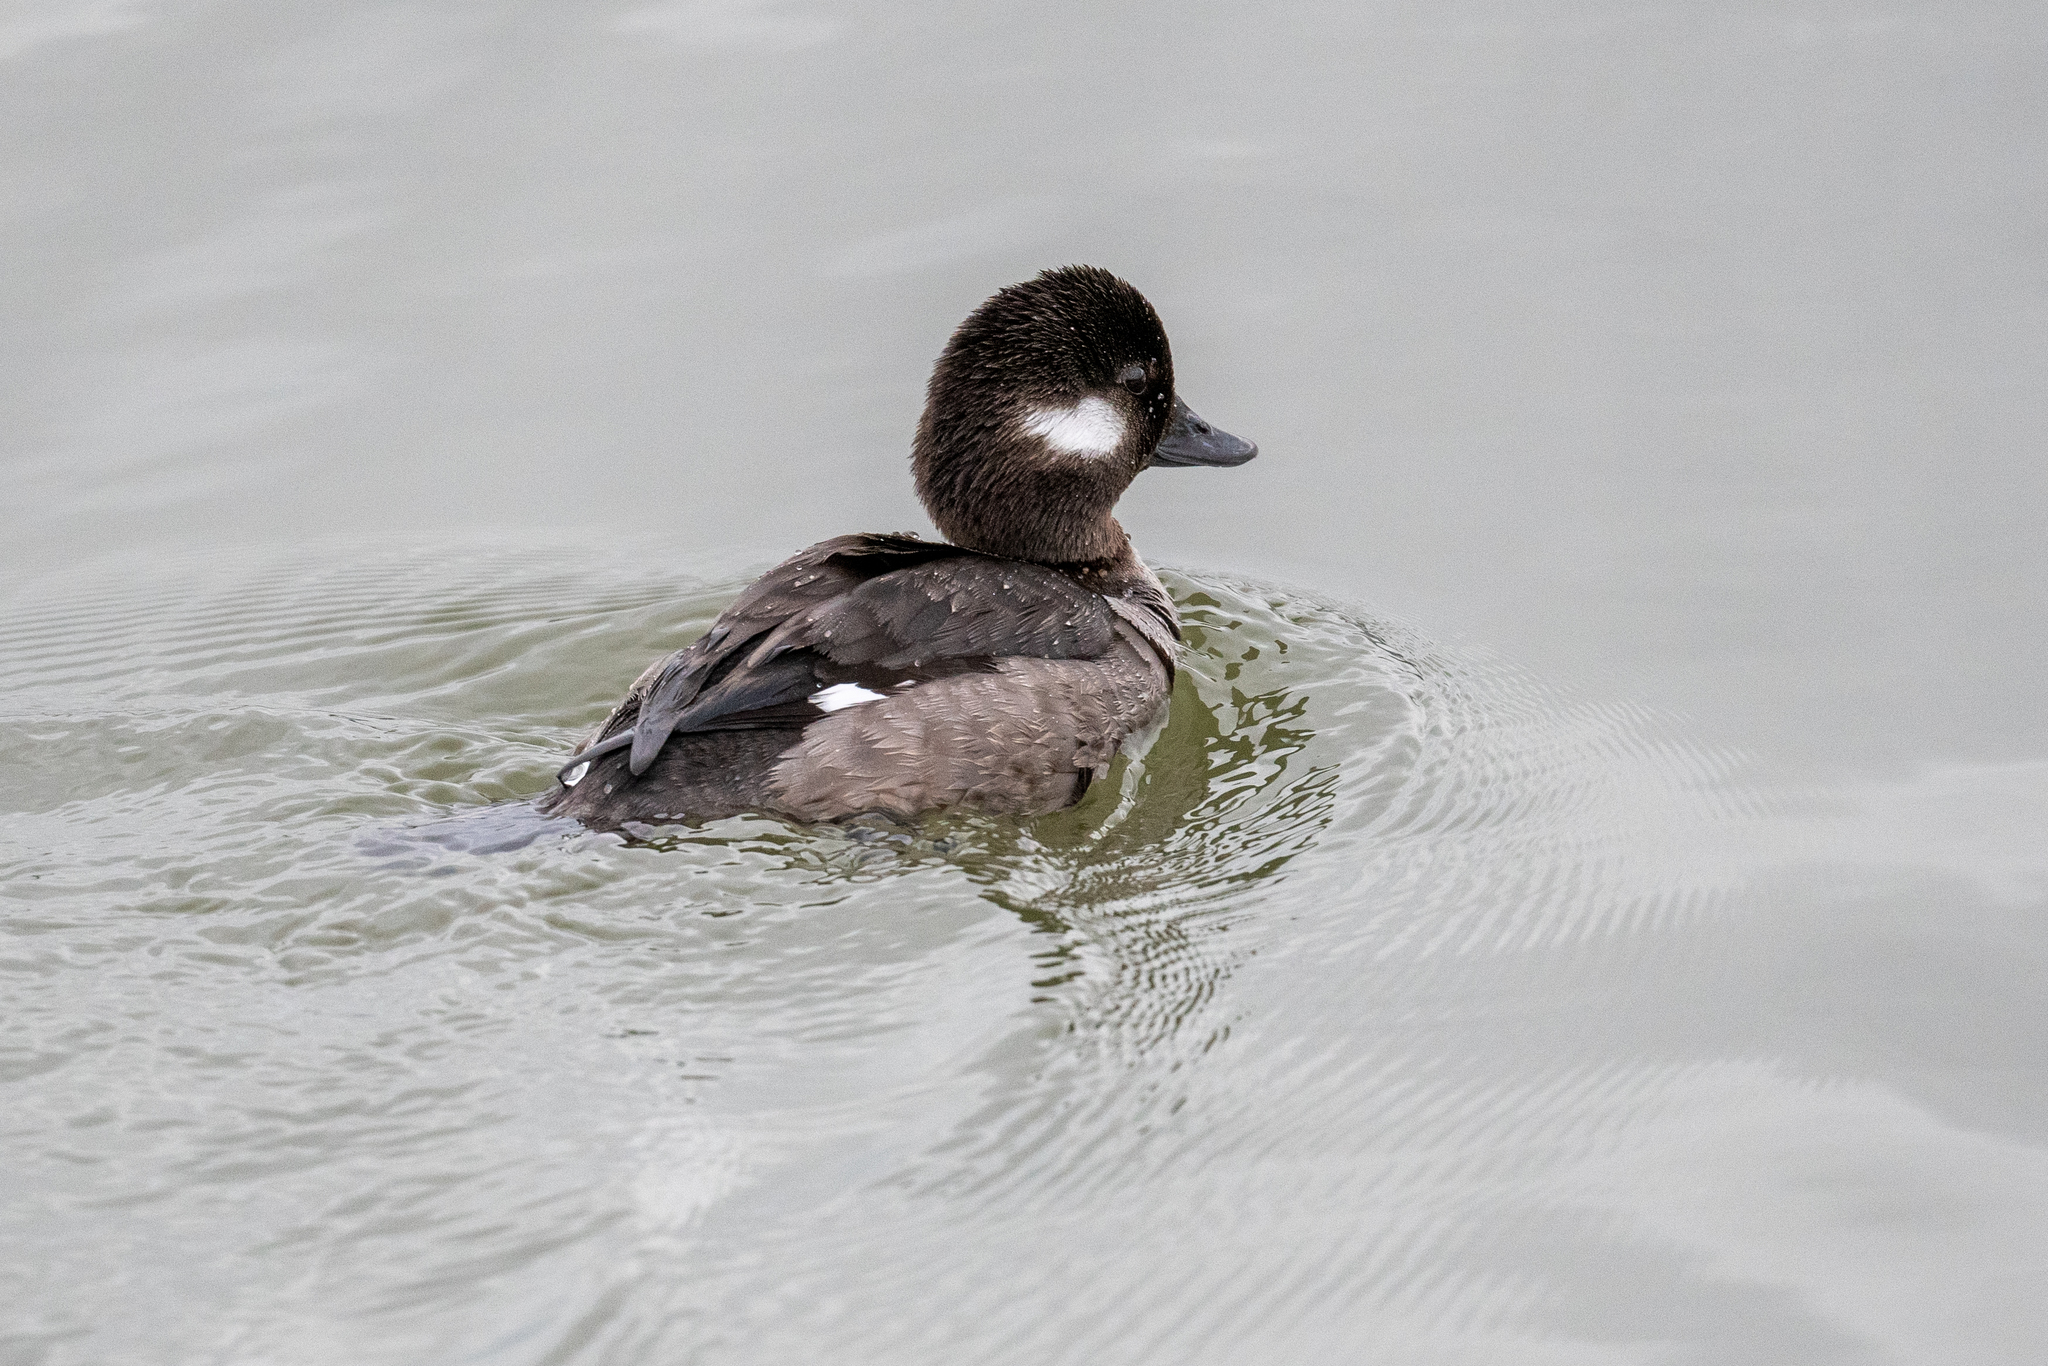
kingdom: Animalia
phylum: Chordata
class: Aves
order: Anseriformes
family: Anatidae
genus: Bucephala
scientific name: Bucephala albeola
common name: Bufflehead
